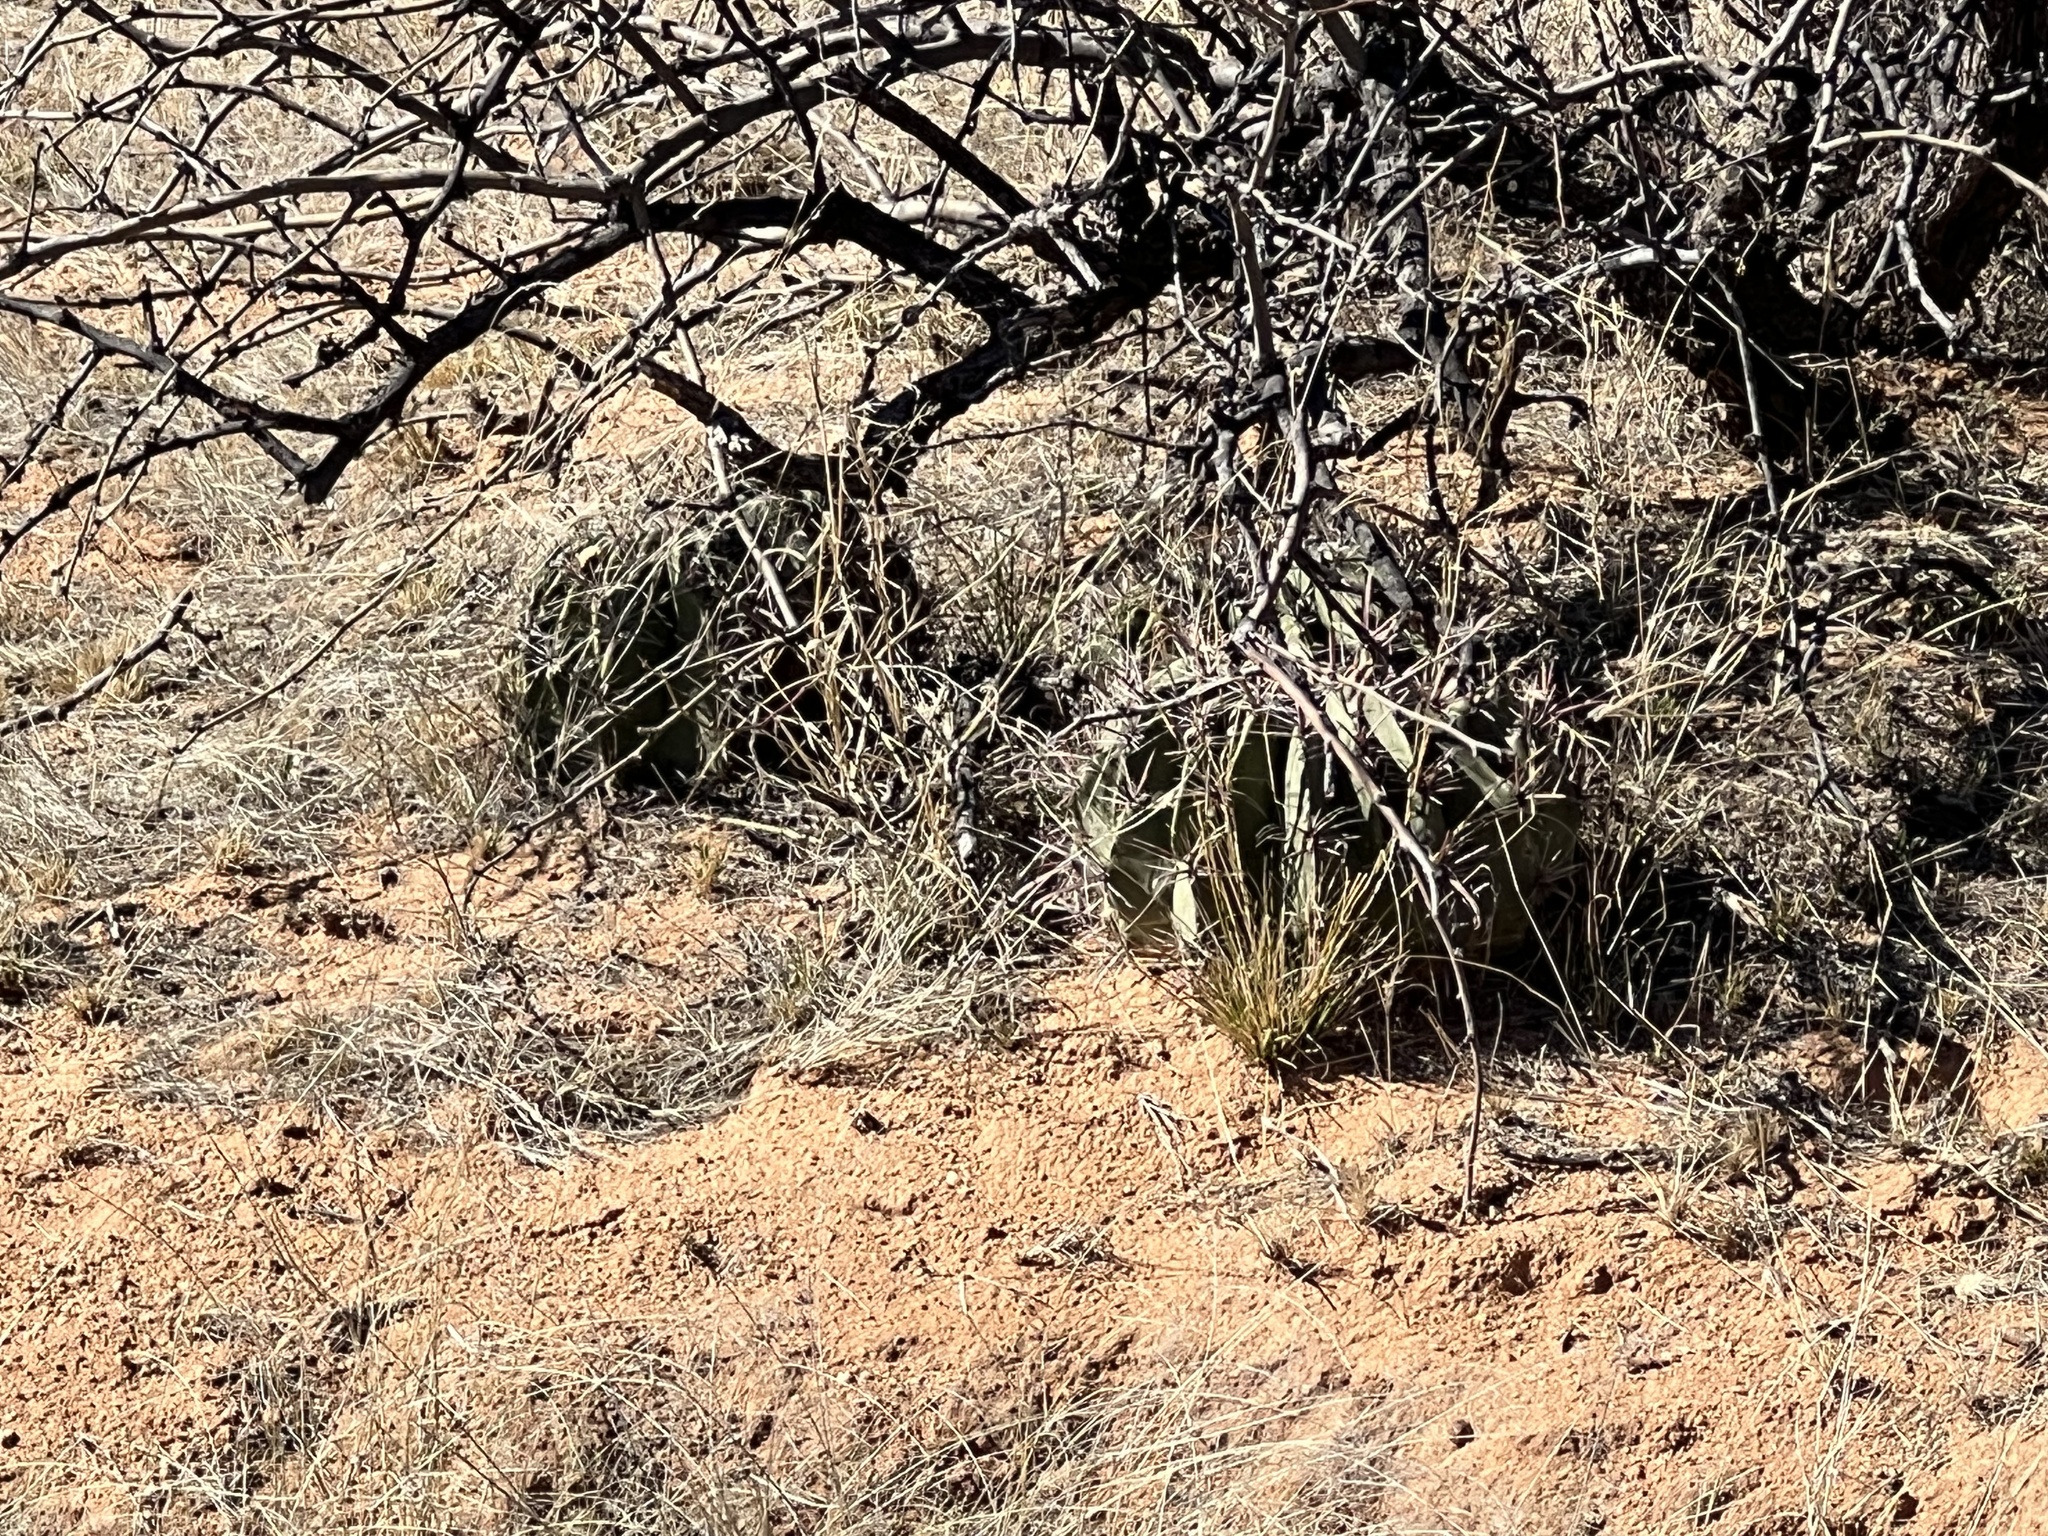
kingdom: Plantae
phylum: Tracheophyta
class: Magnoliopsida
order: Caryophyllales
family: Cactaceae
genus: Ferocactus
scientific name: Ferocactus wislizeni
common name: Candy barrel cactus
